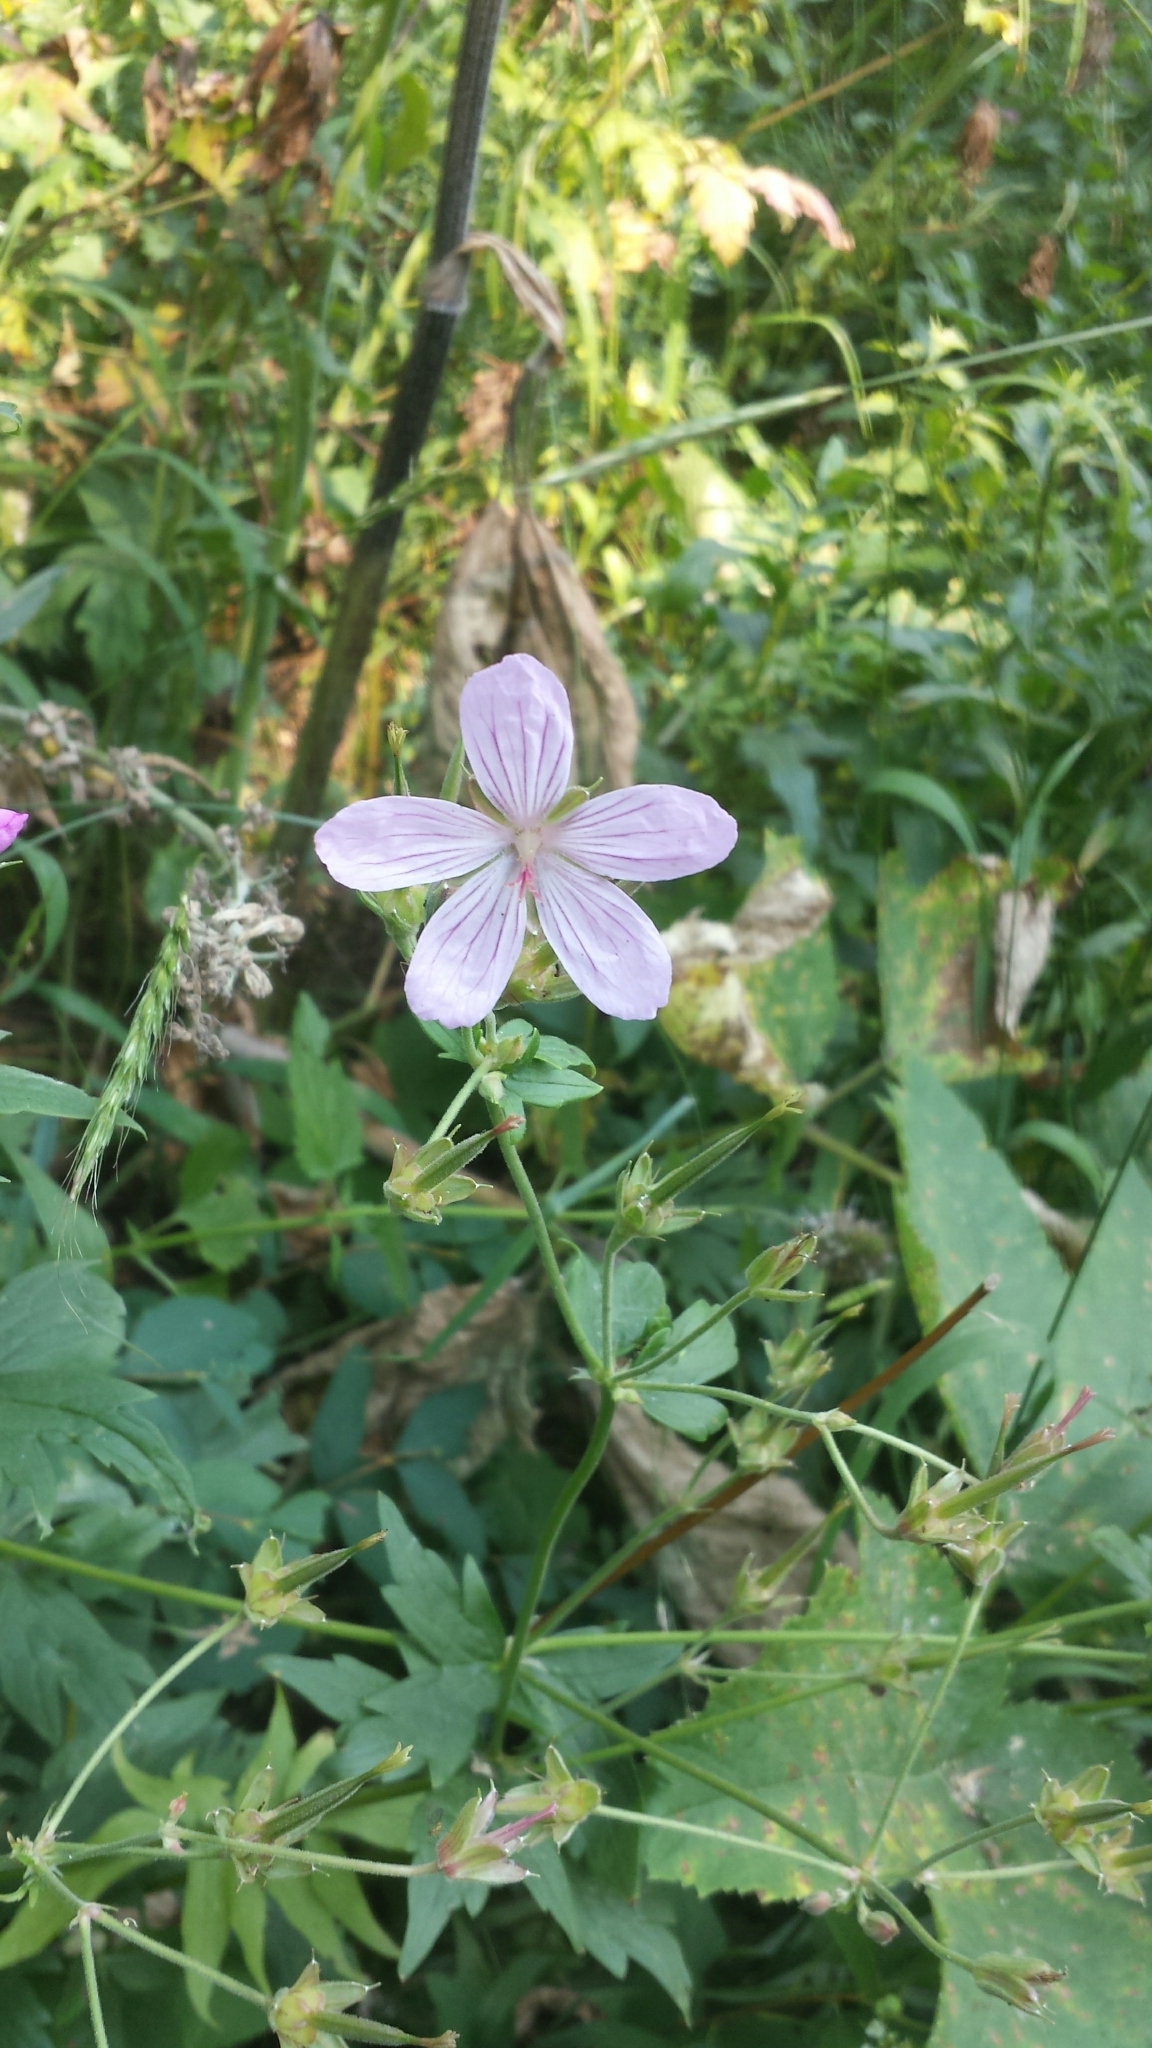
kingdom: Plantae
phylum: Tracheophyta
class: Magnoliopsida
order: Geraniales
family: Geraniaceae
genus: Geranium
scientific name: Geranium richardsonii
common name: Richardson's crane's-bill
